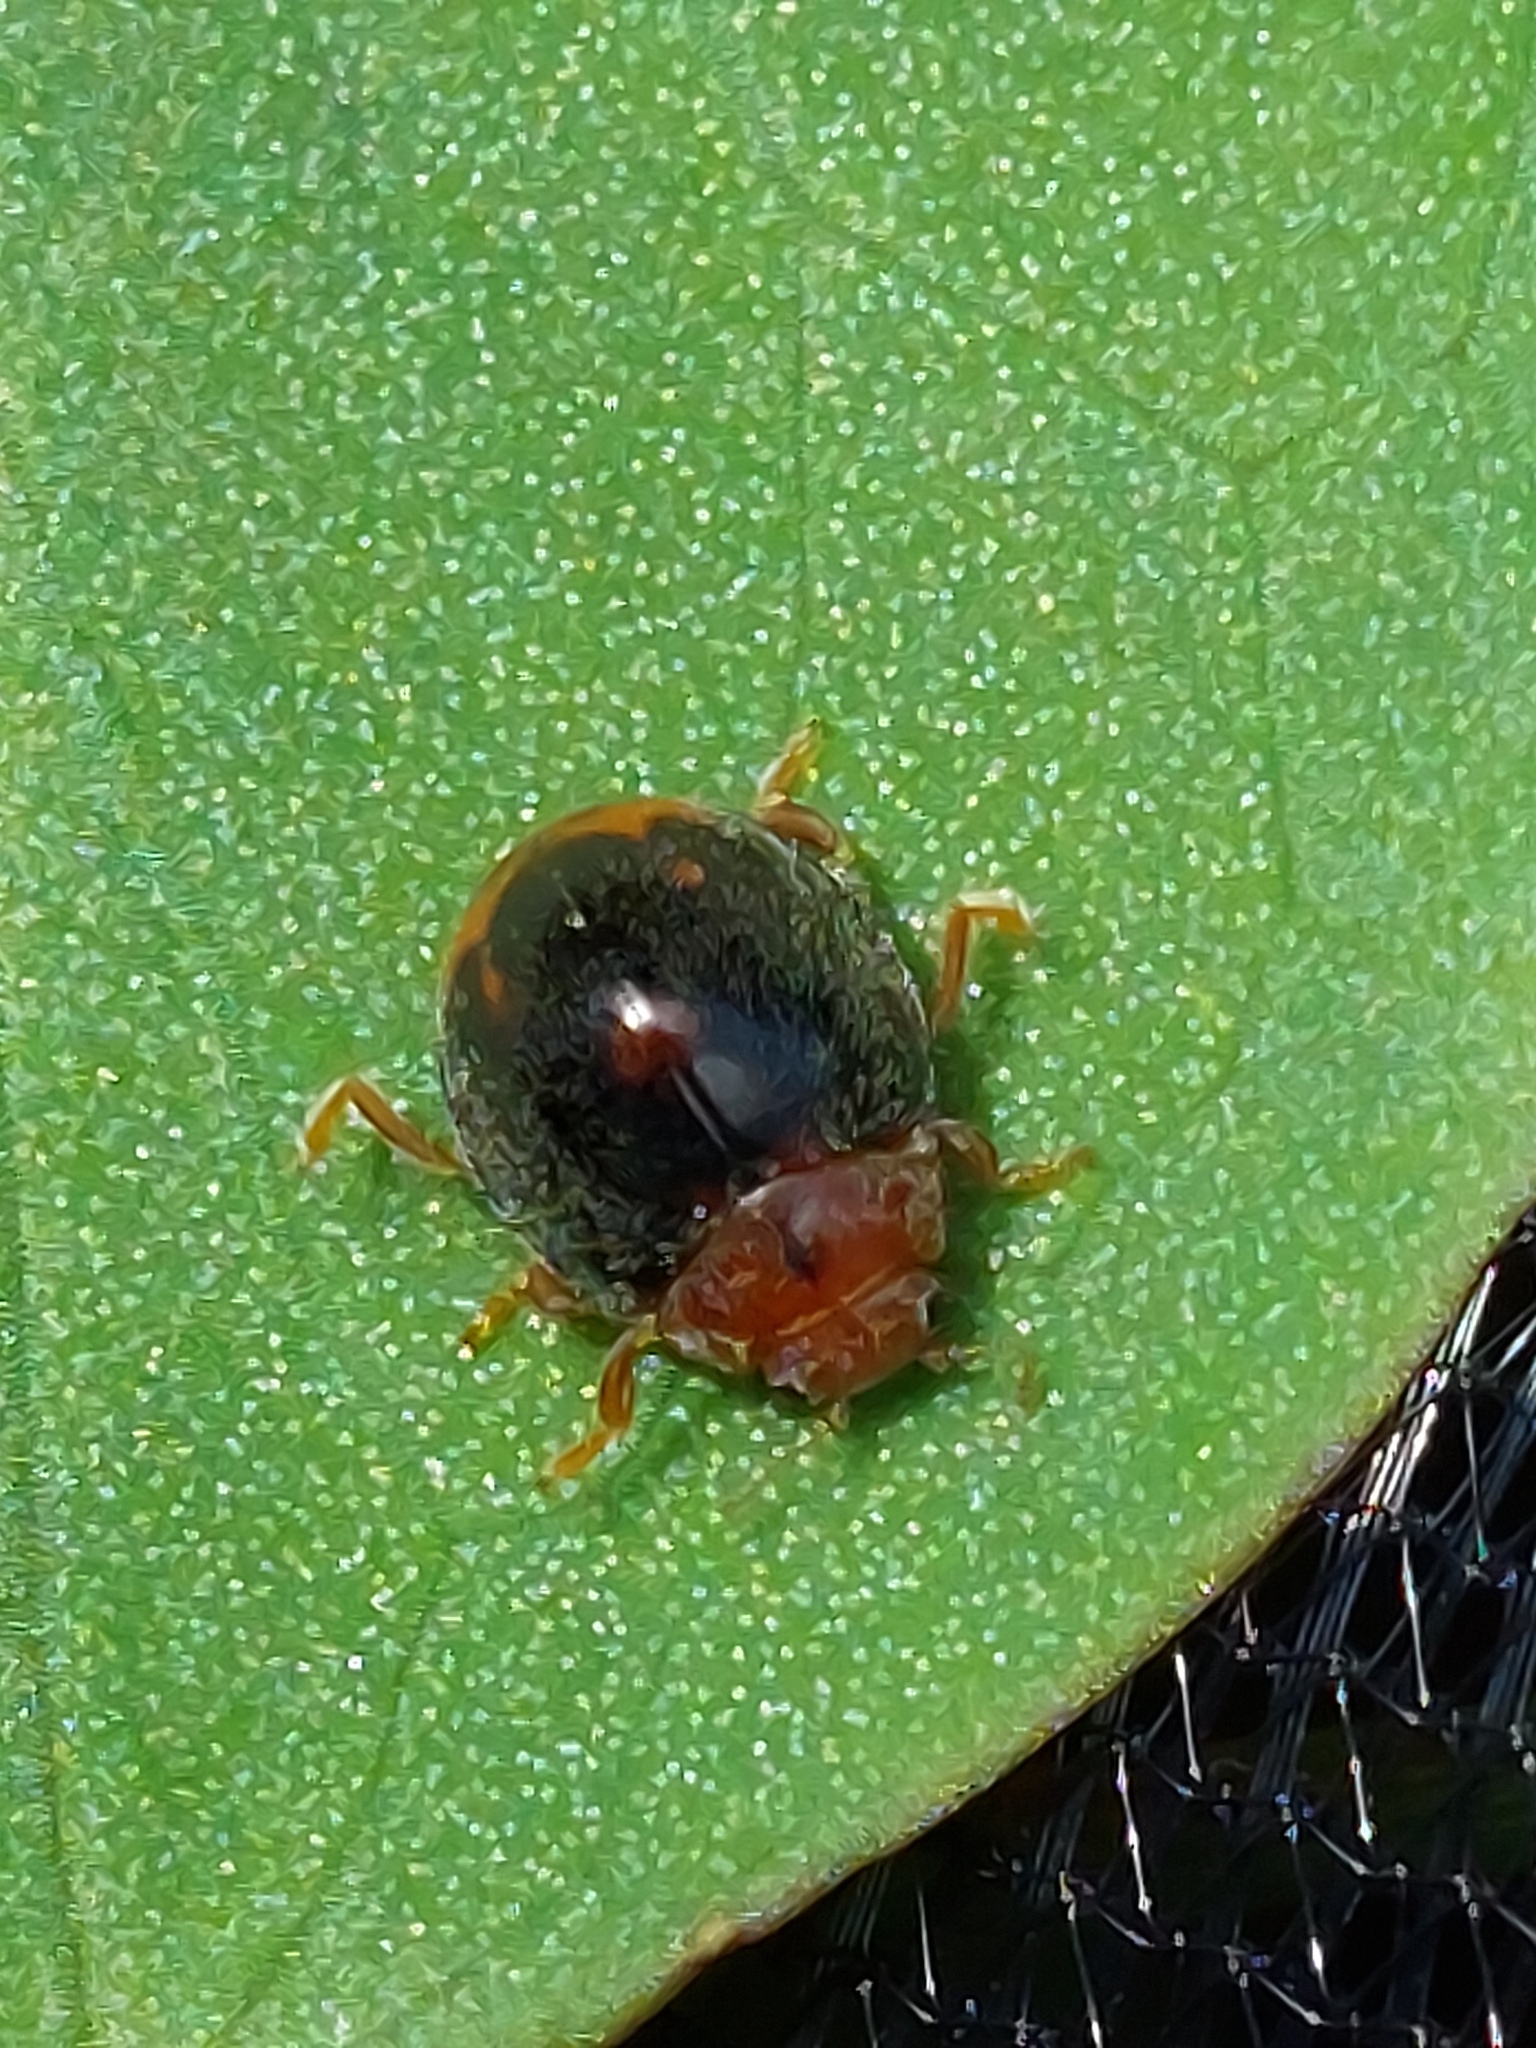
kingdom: Animalia
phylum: Arthropoda
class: Insecta
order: Coleoptera
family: Coccinellidae
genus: Subcoccinella
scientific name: Subcoccinella vigintiquatuorpunctata
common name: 24-spot ladybird
